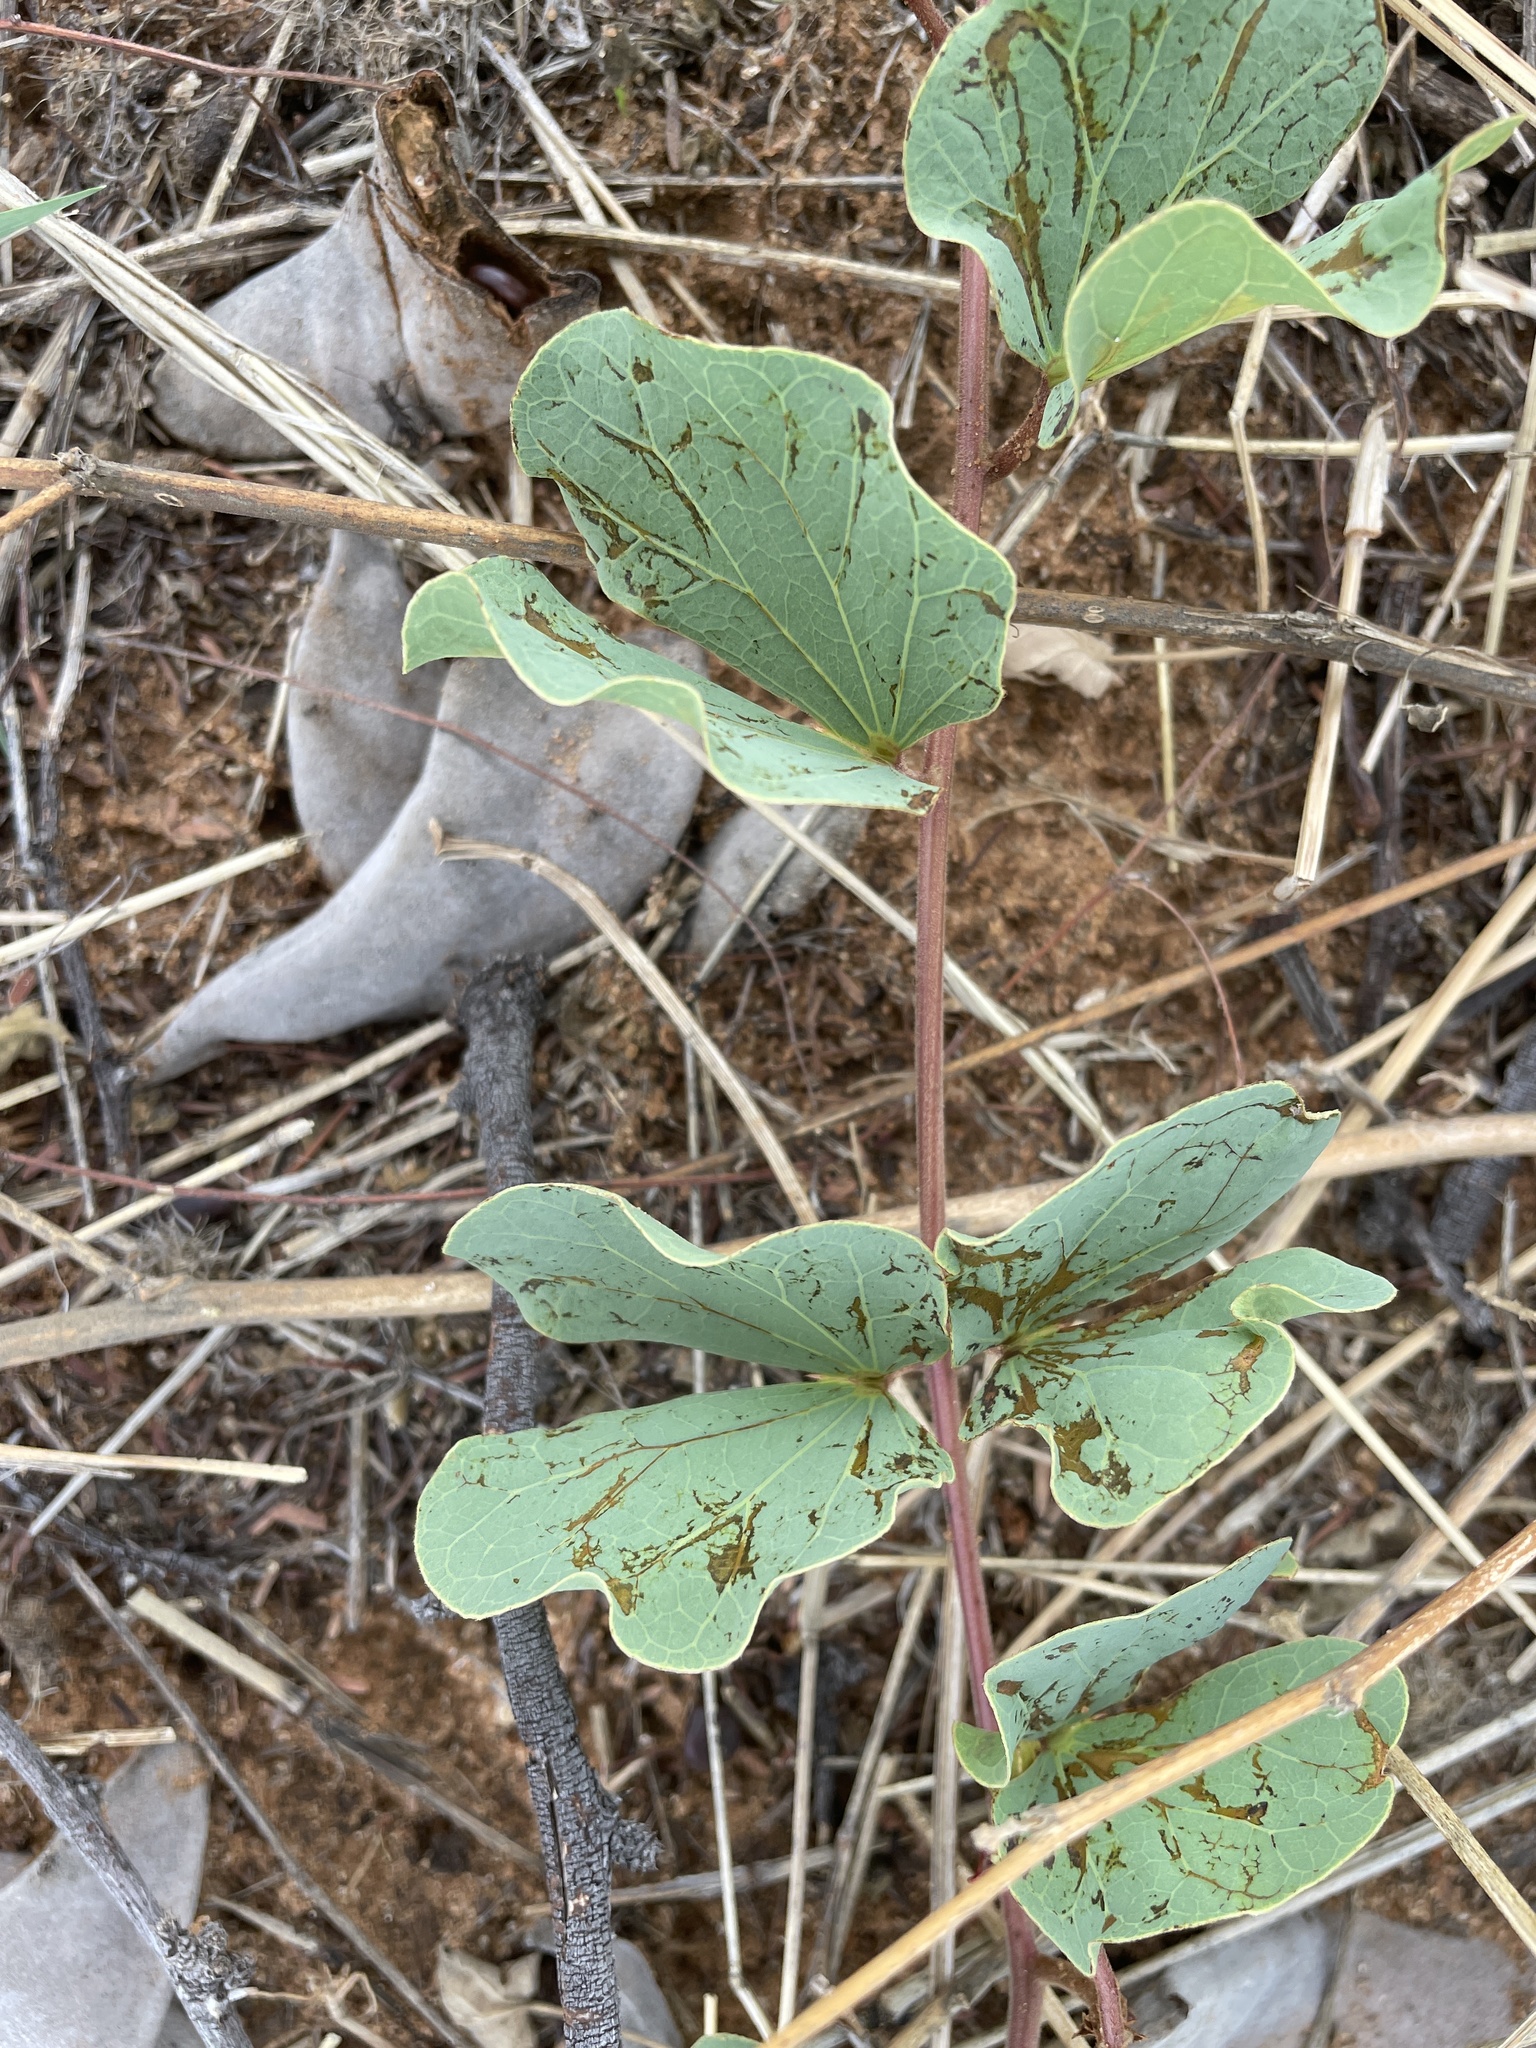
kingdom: Plantae
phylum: Tracheophyta
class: Magnoliopsida
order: Fabales
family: Fabaceae
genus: Tylosema
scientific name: Tylosema esculentum
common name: Marama-bean
